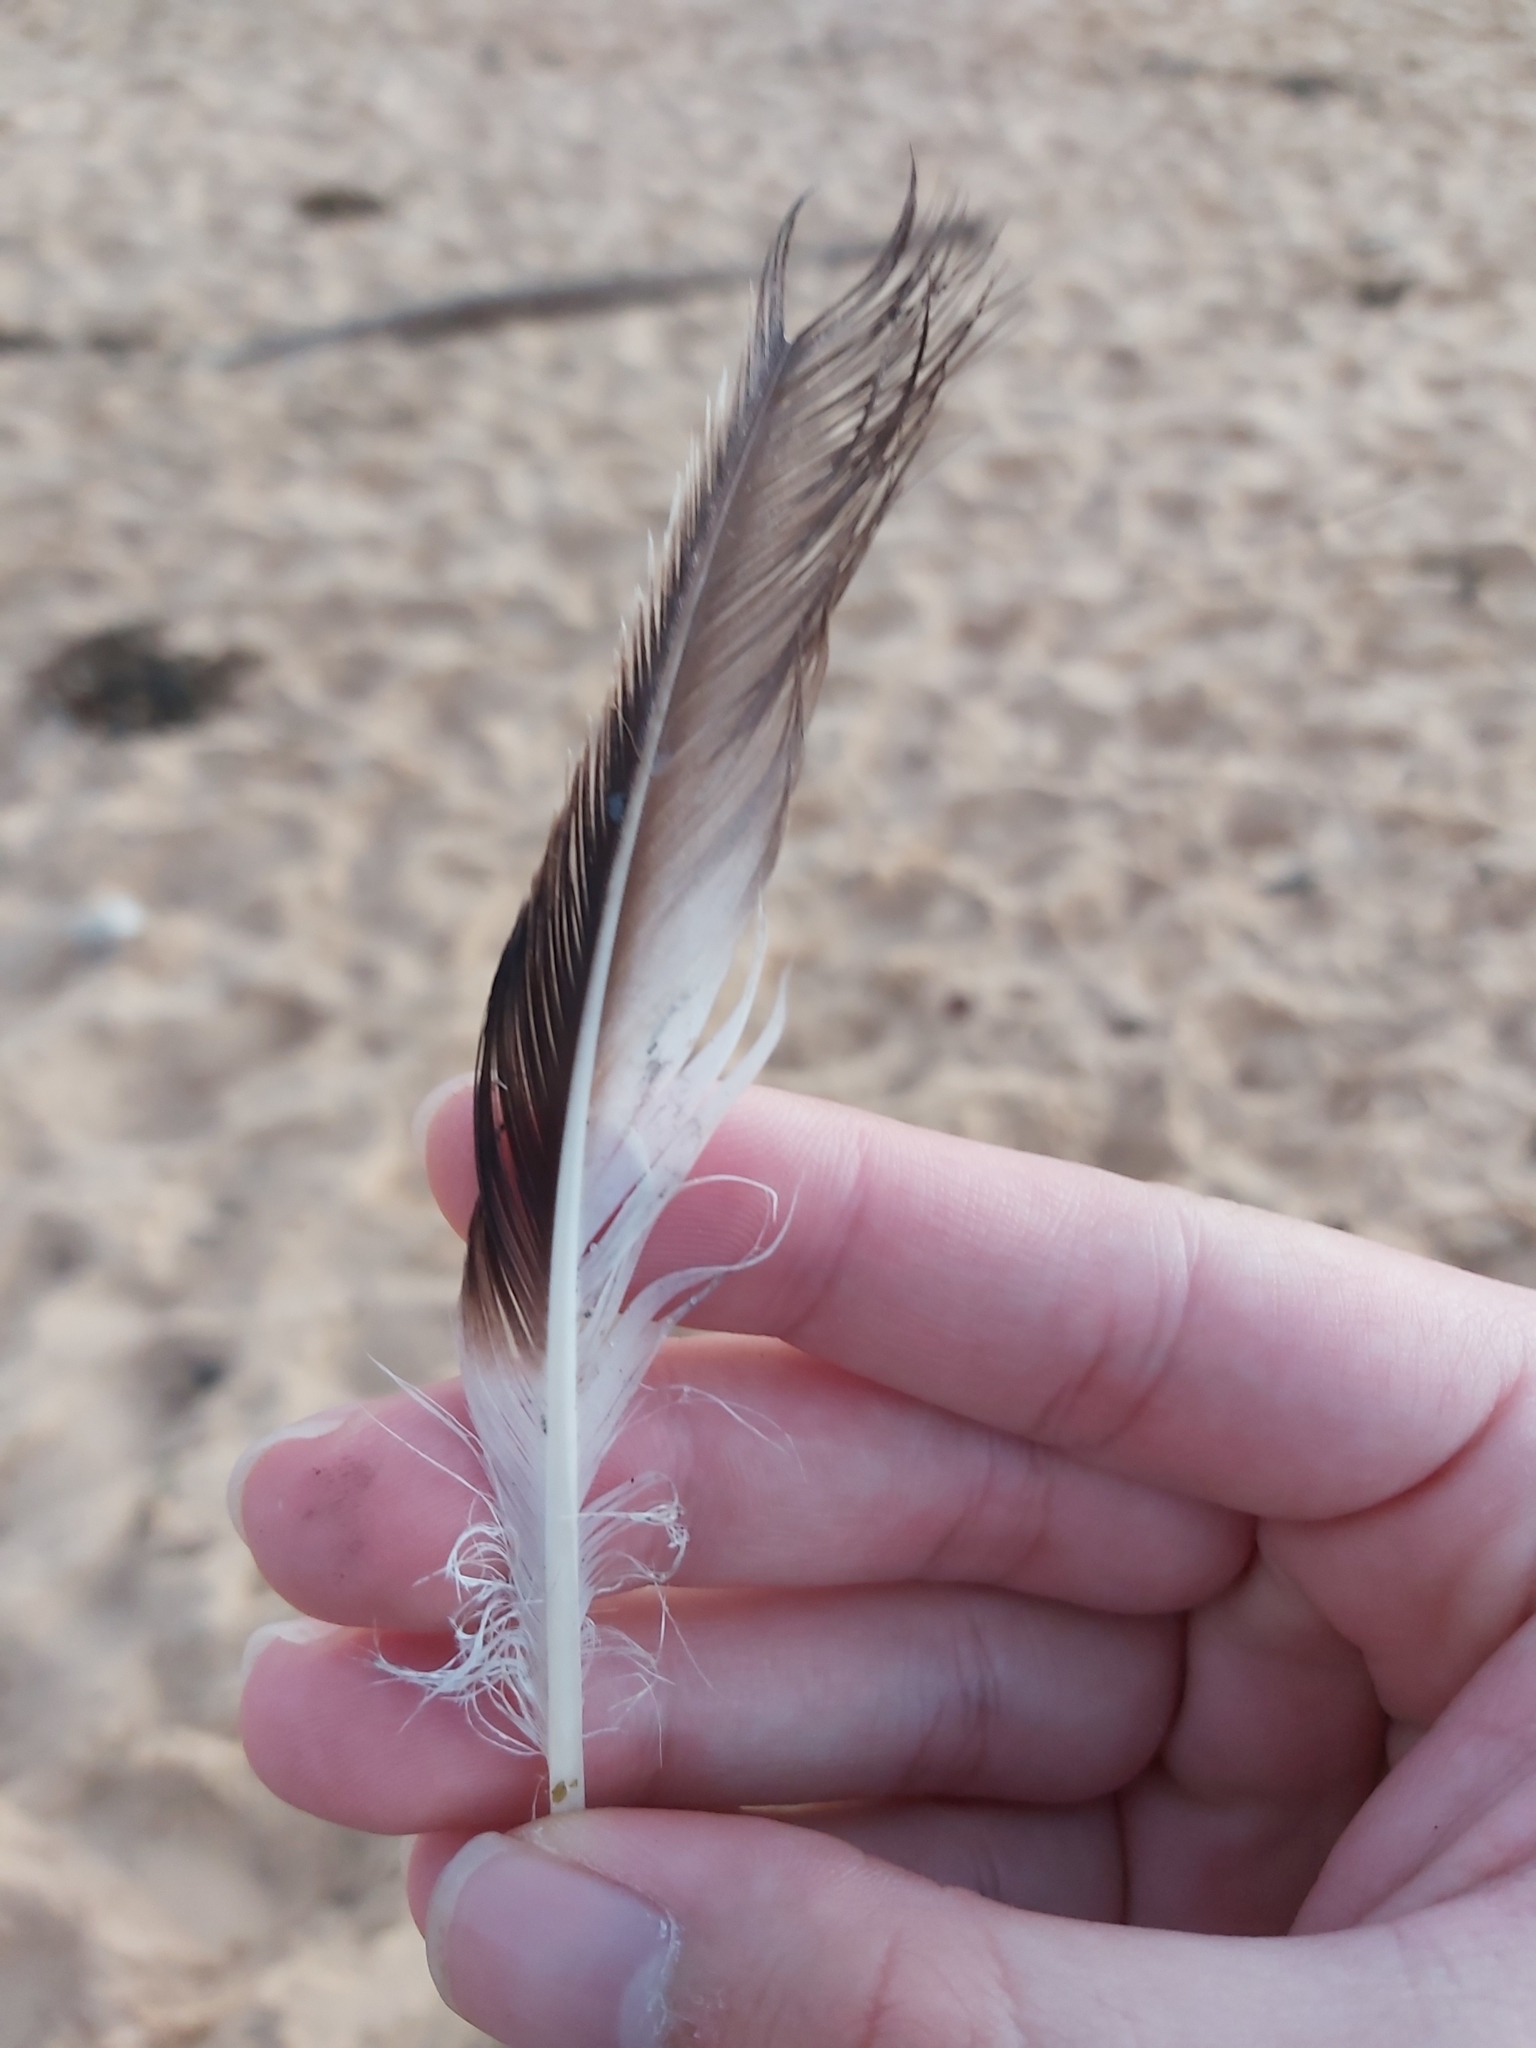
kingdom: Animalia
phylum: Chordata
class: Aves
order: Suliformes
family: Sulidae
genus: Morus
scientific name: Morus serrator
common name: Australasian gannet
